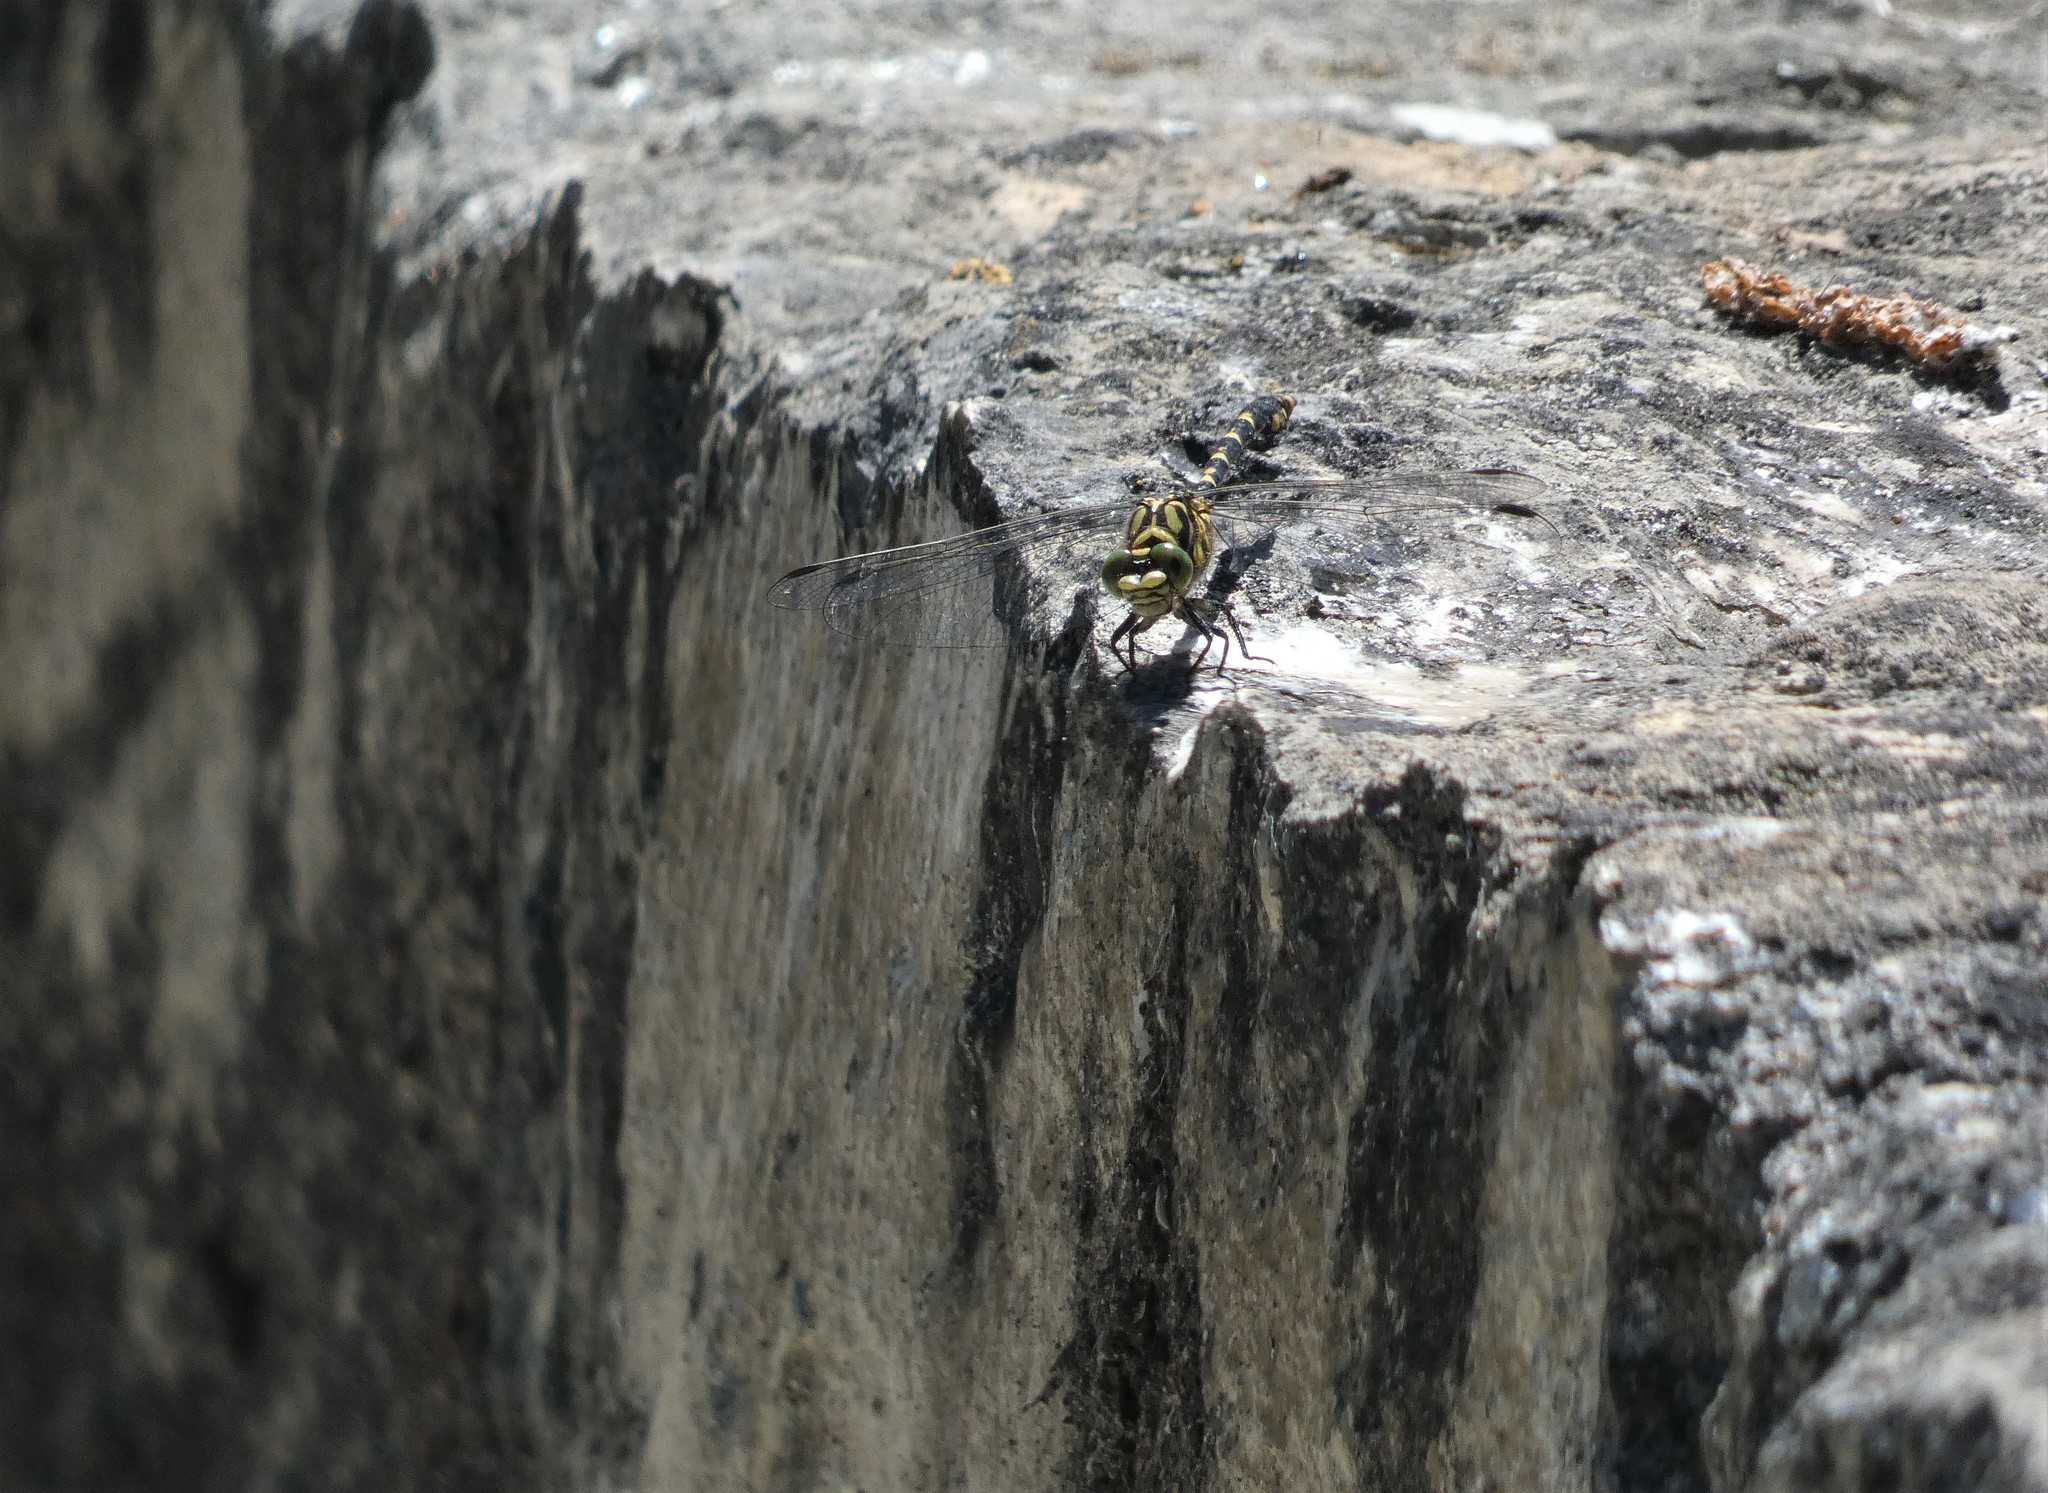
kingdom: Animalia
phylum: Arthropoda
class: Insecta
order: Odonata
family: Gomphidae
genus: Onychogomphus
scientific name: Onychogomphus forcipatus
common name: Small pincertail
